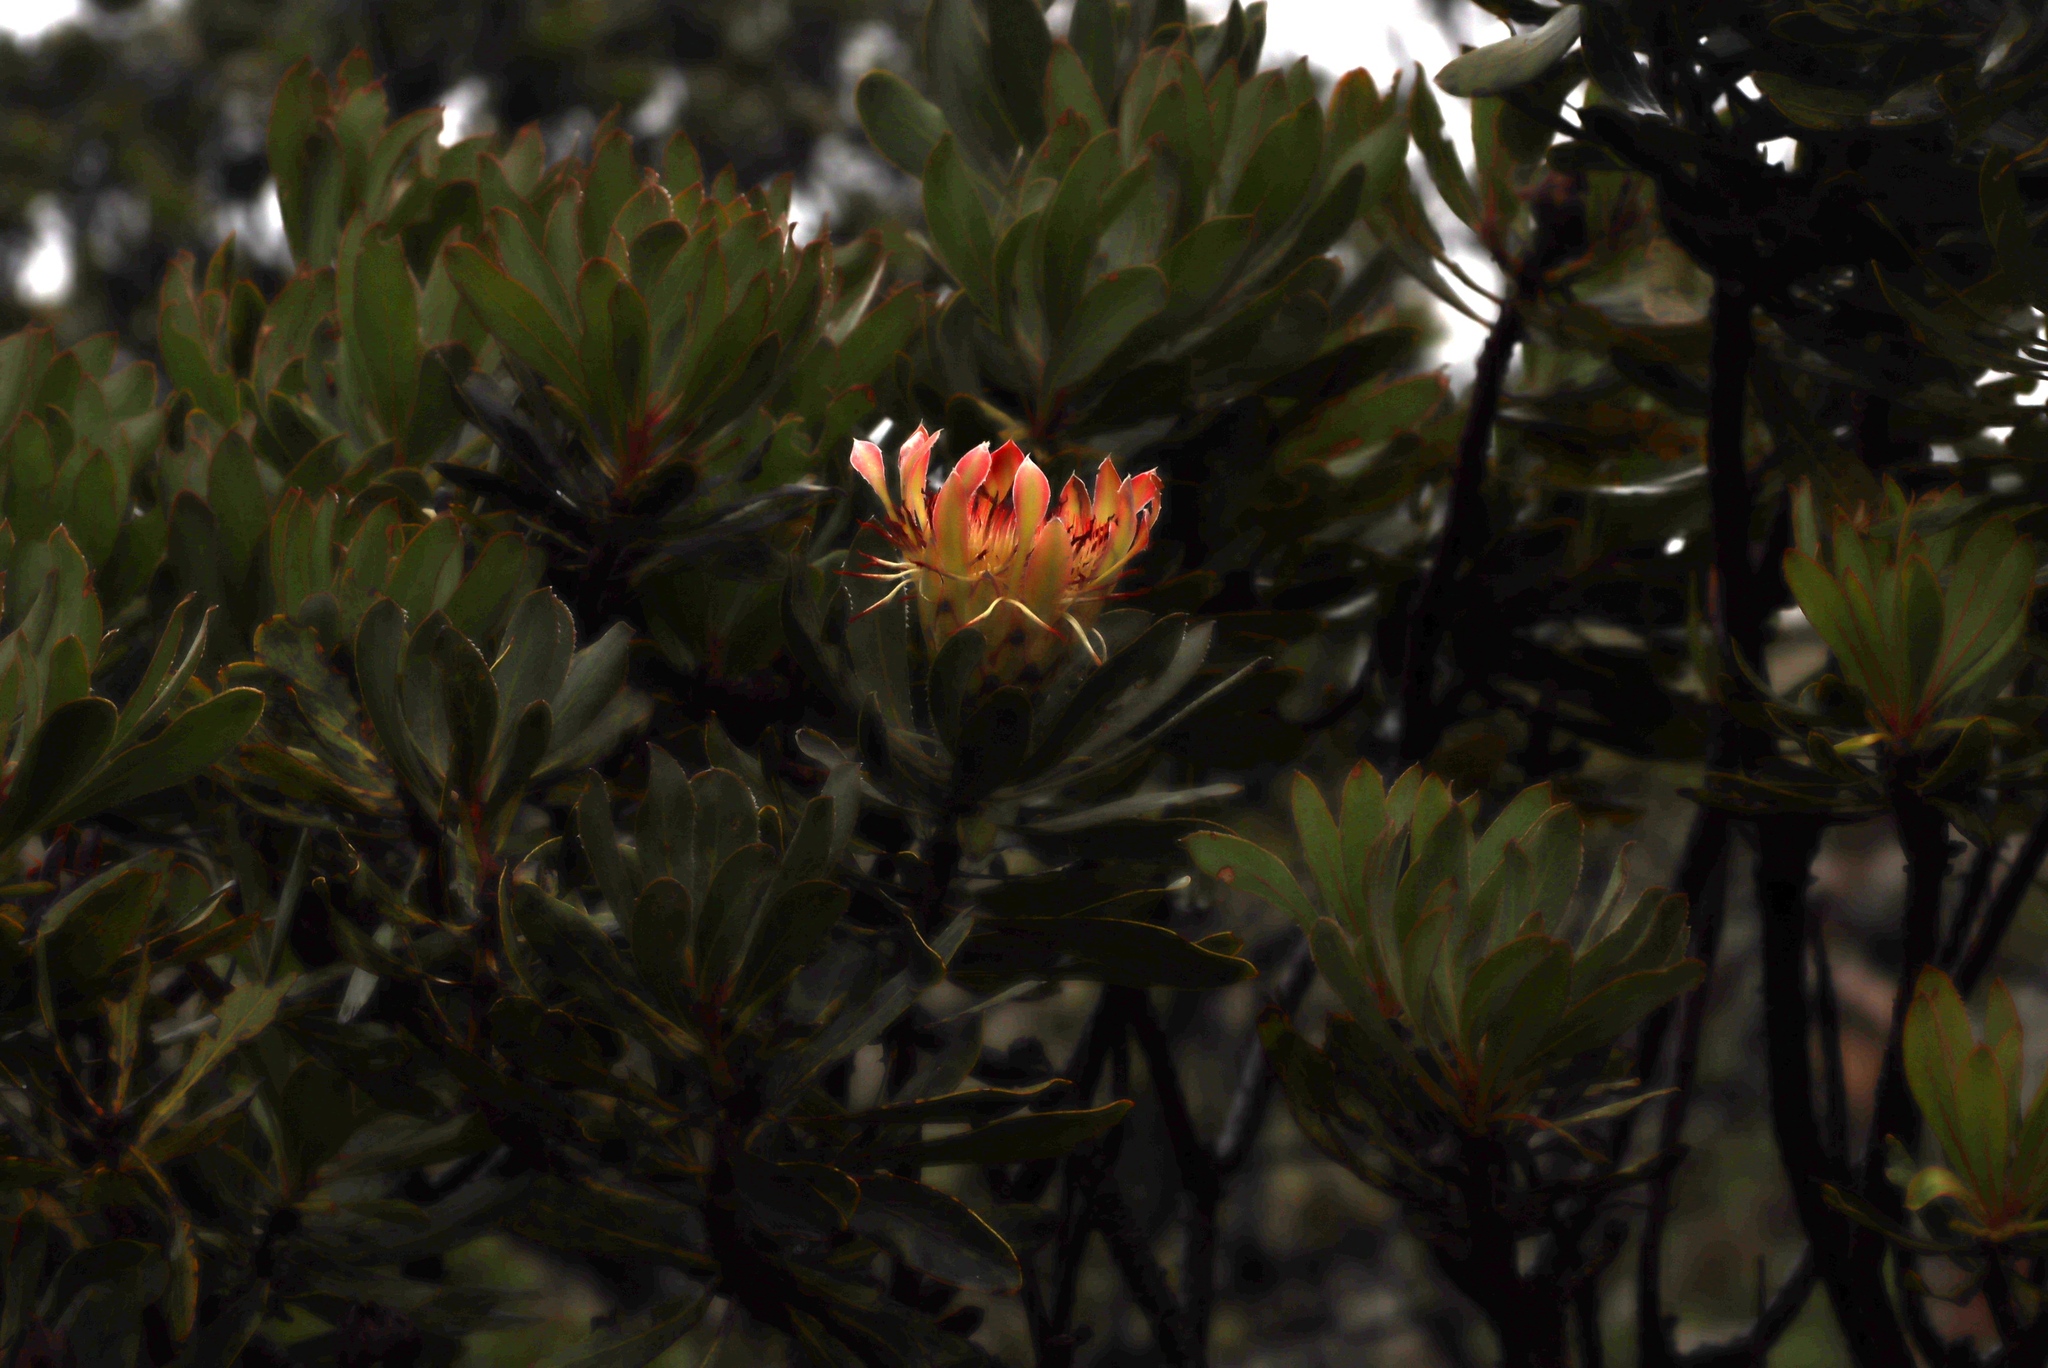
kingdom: Plantae
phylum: Tracheophyta
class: Magnoliopsida
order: Proteales
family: Proteaceae
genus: Protea
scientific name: Protea roupelliae
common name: Silver sugarbush
